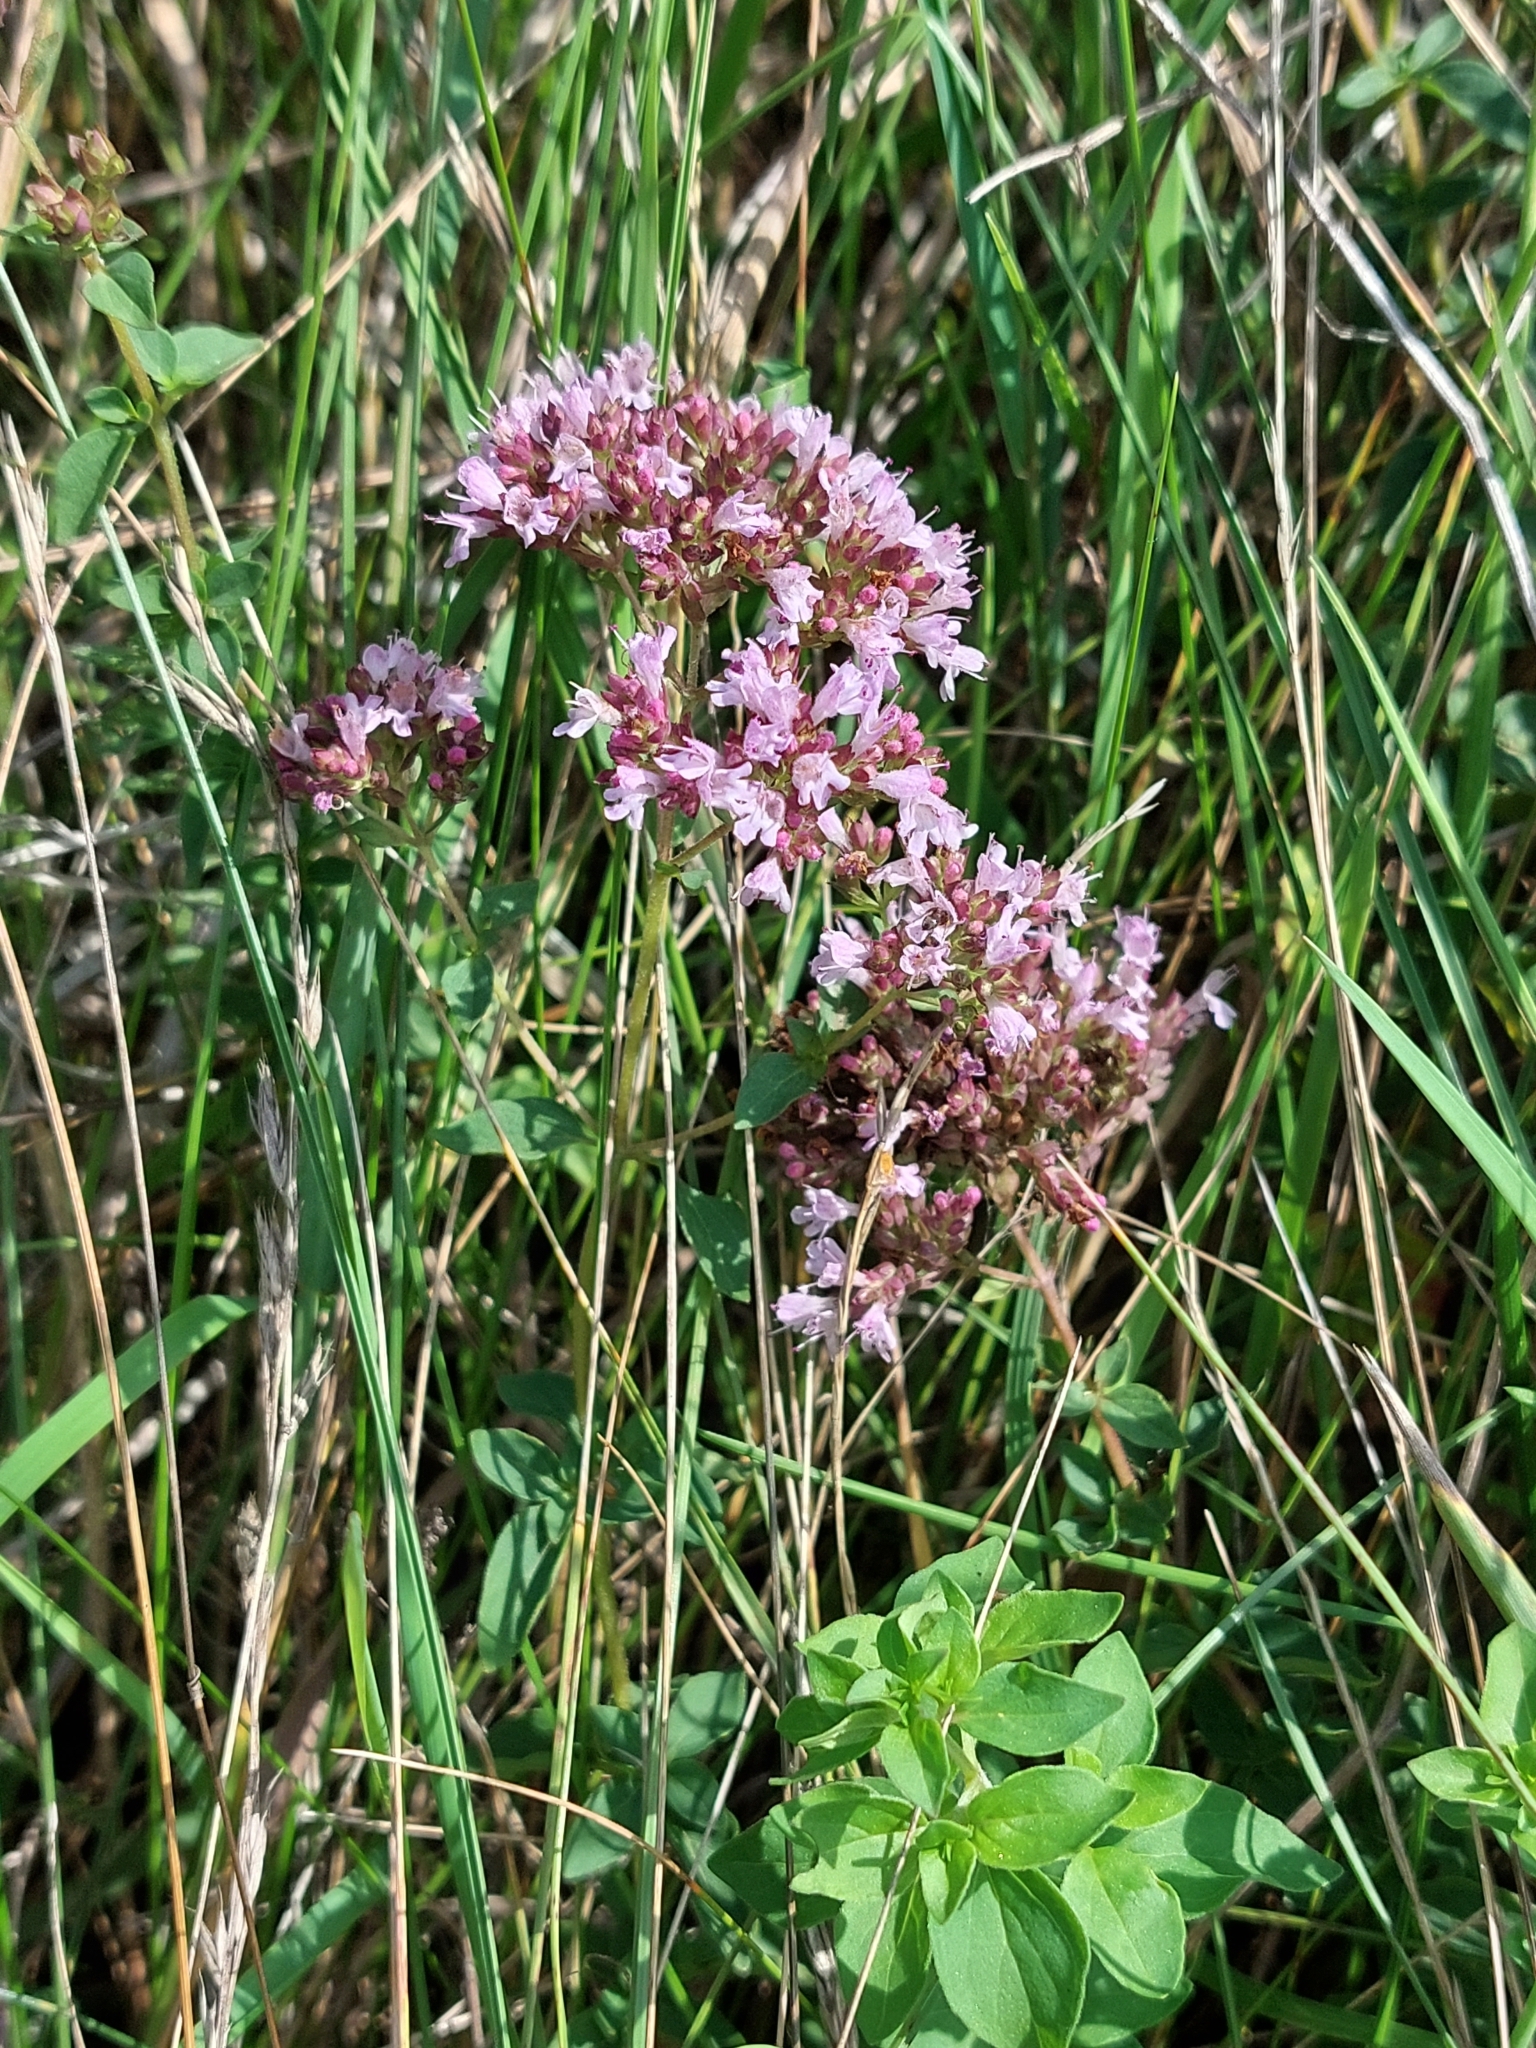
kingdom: Plantae
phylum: Tracheophyta
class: Magnoliopsida
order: Lamiales
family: Lamiaceae
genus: Origanum
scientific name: Origanum vulgare
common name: Wild marjoram
